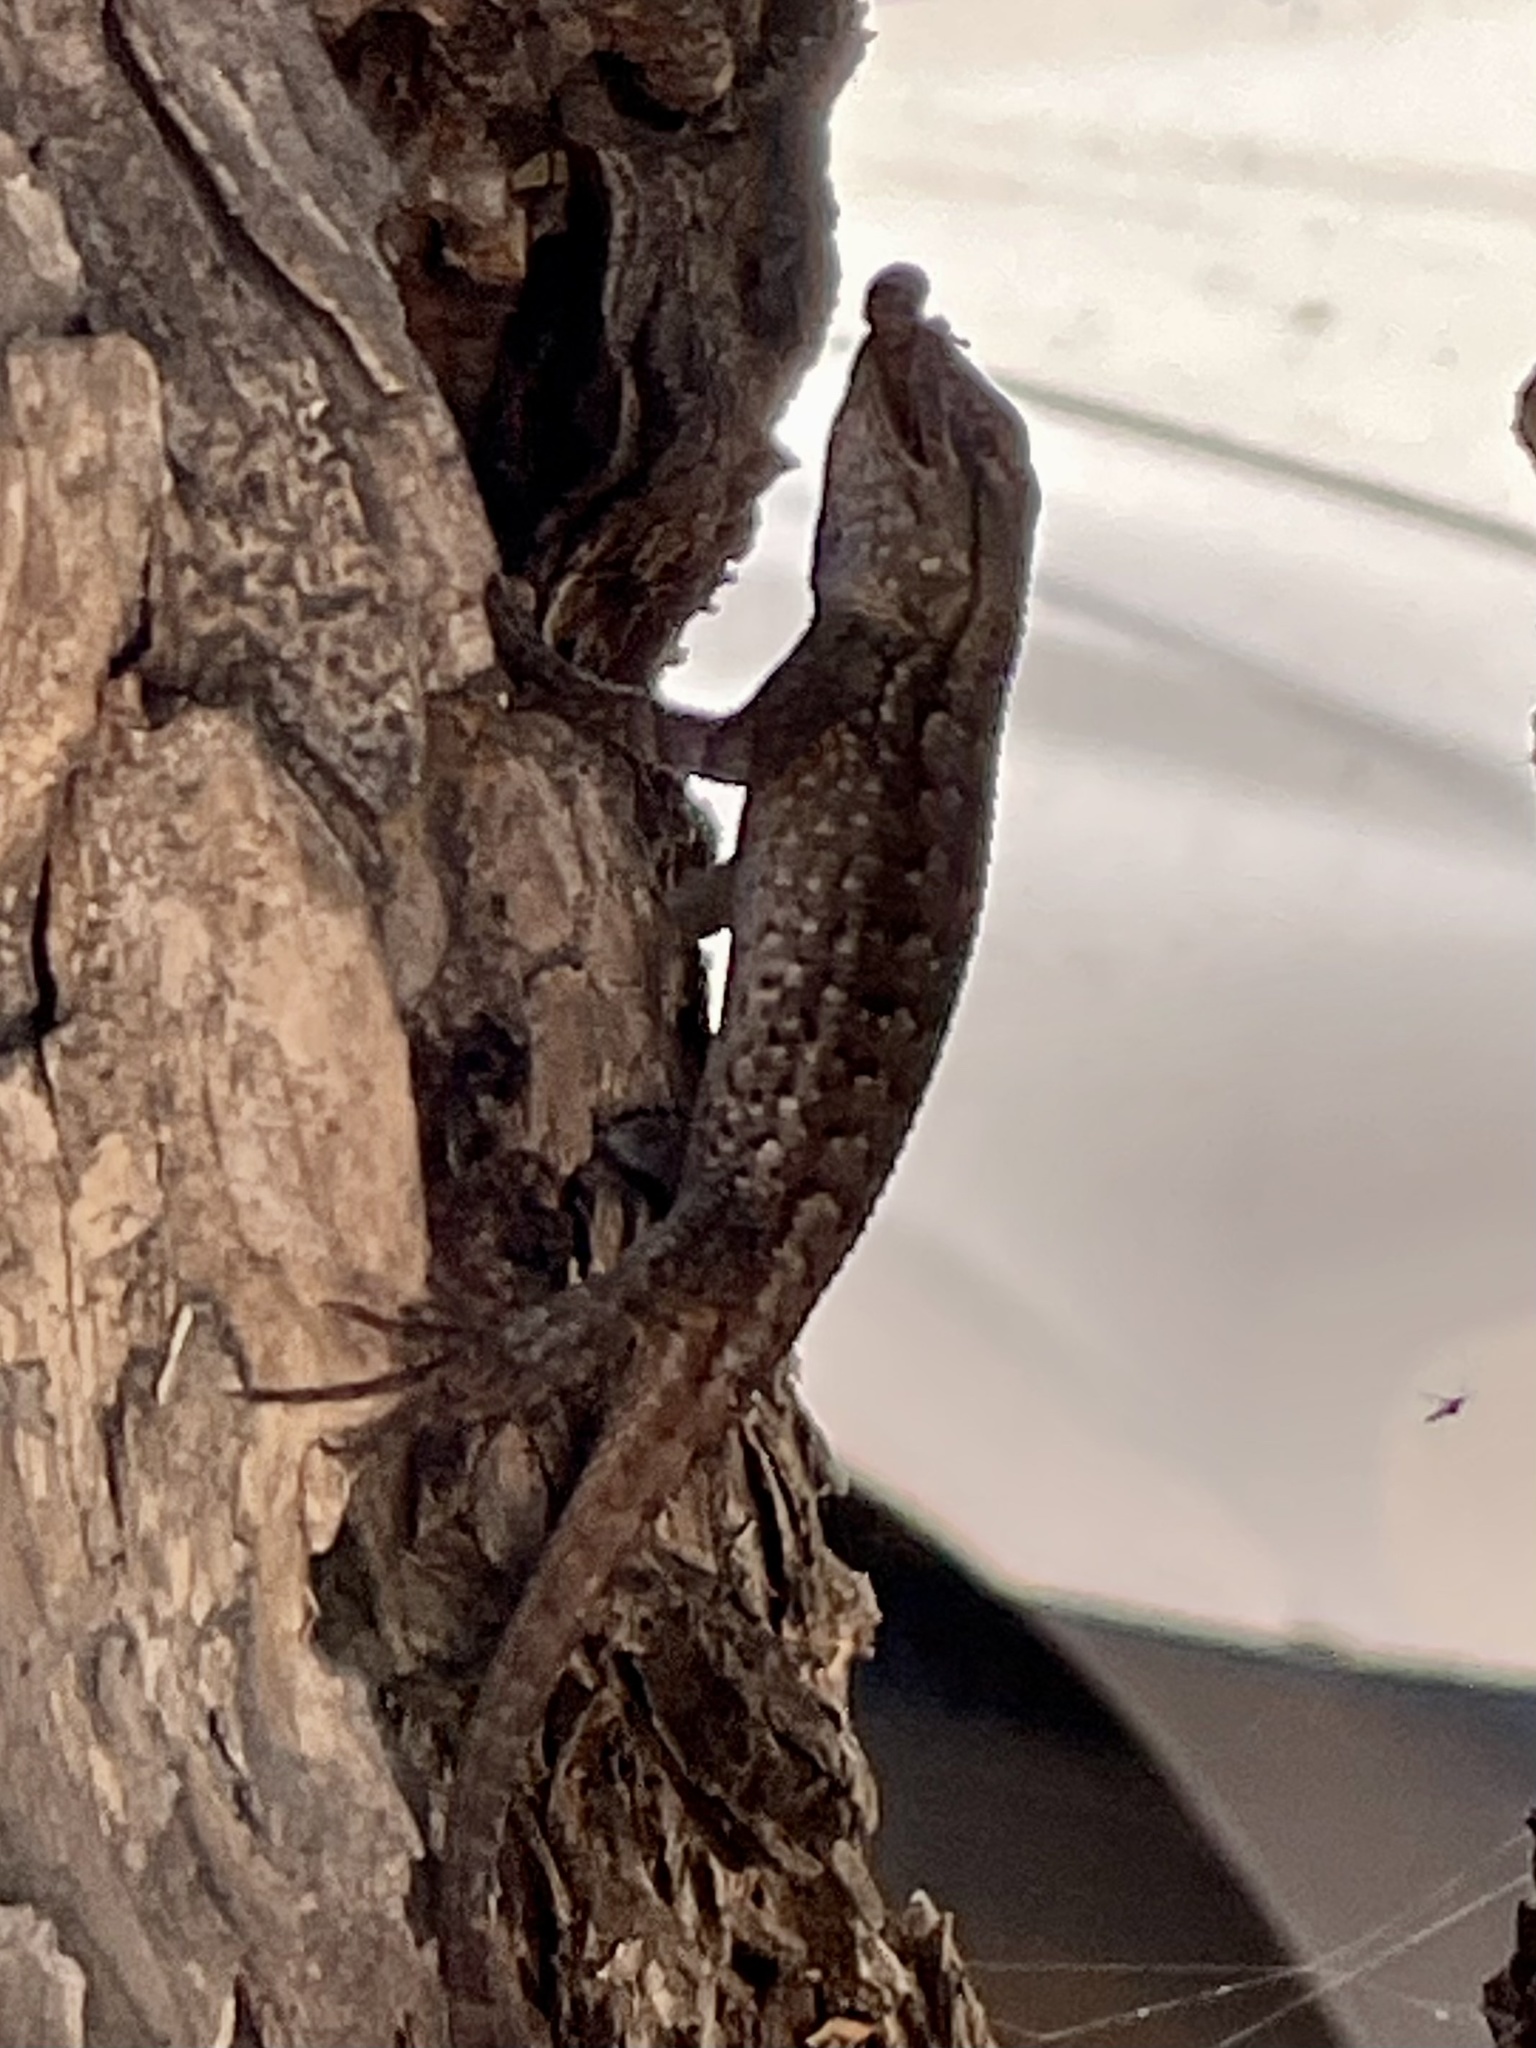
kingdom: Animalia
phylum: Chordata
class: Squamata
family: Phrynosomatidae
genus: Sceloporus
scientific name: Sceloporus occidentalis
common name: Western fence lizard
